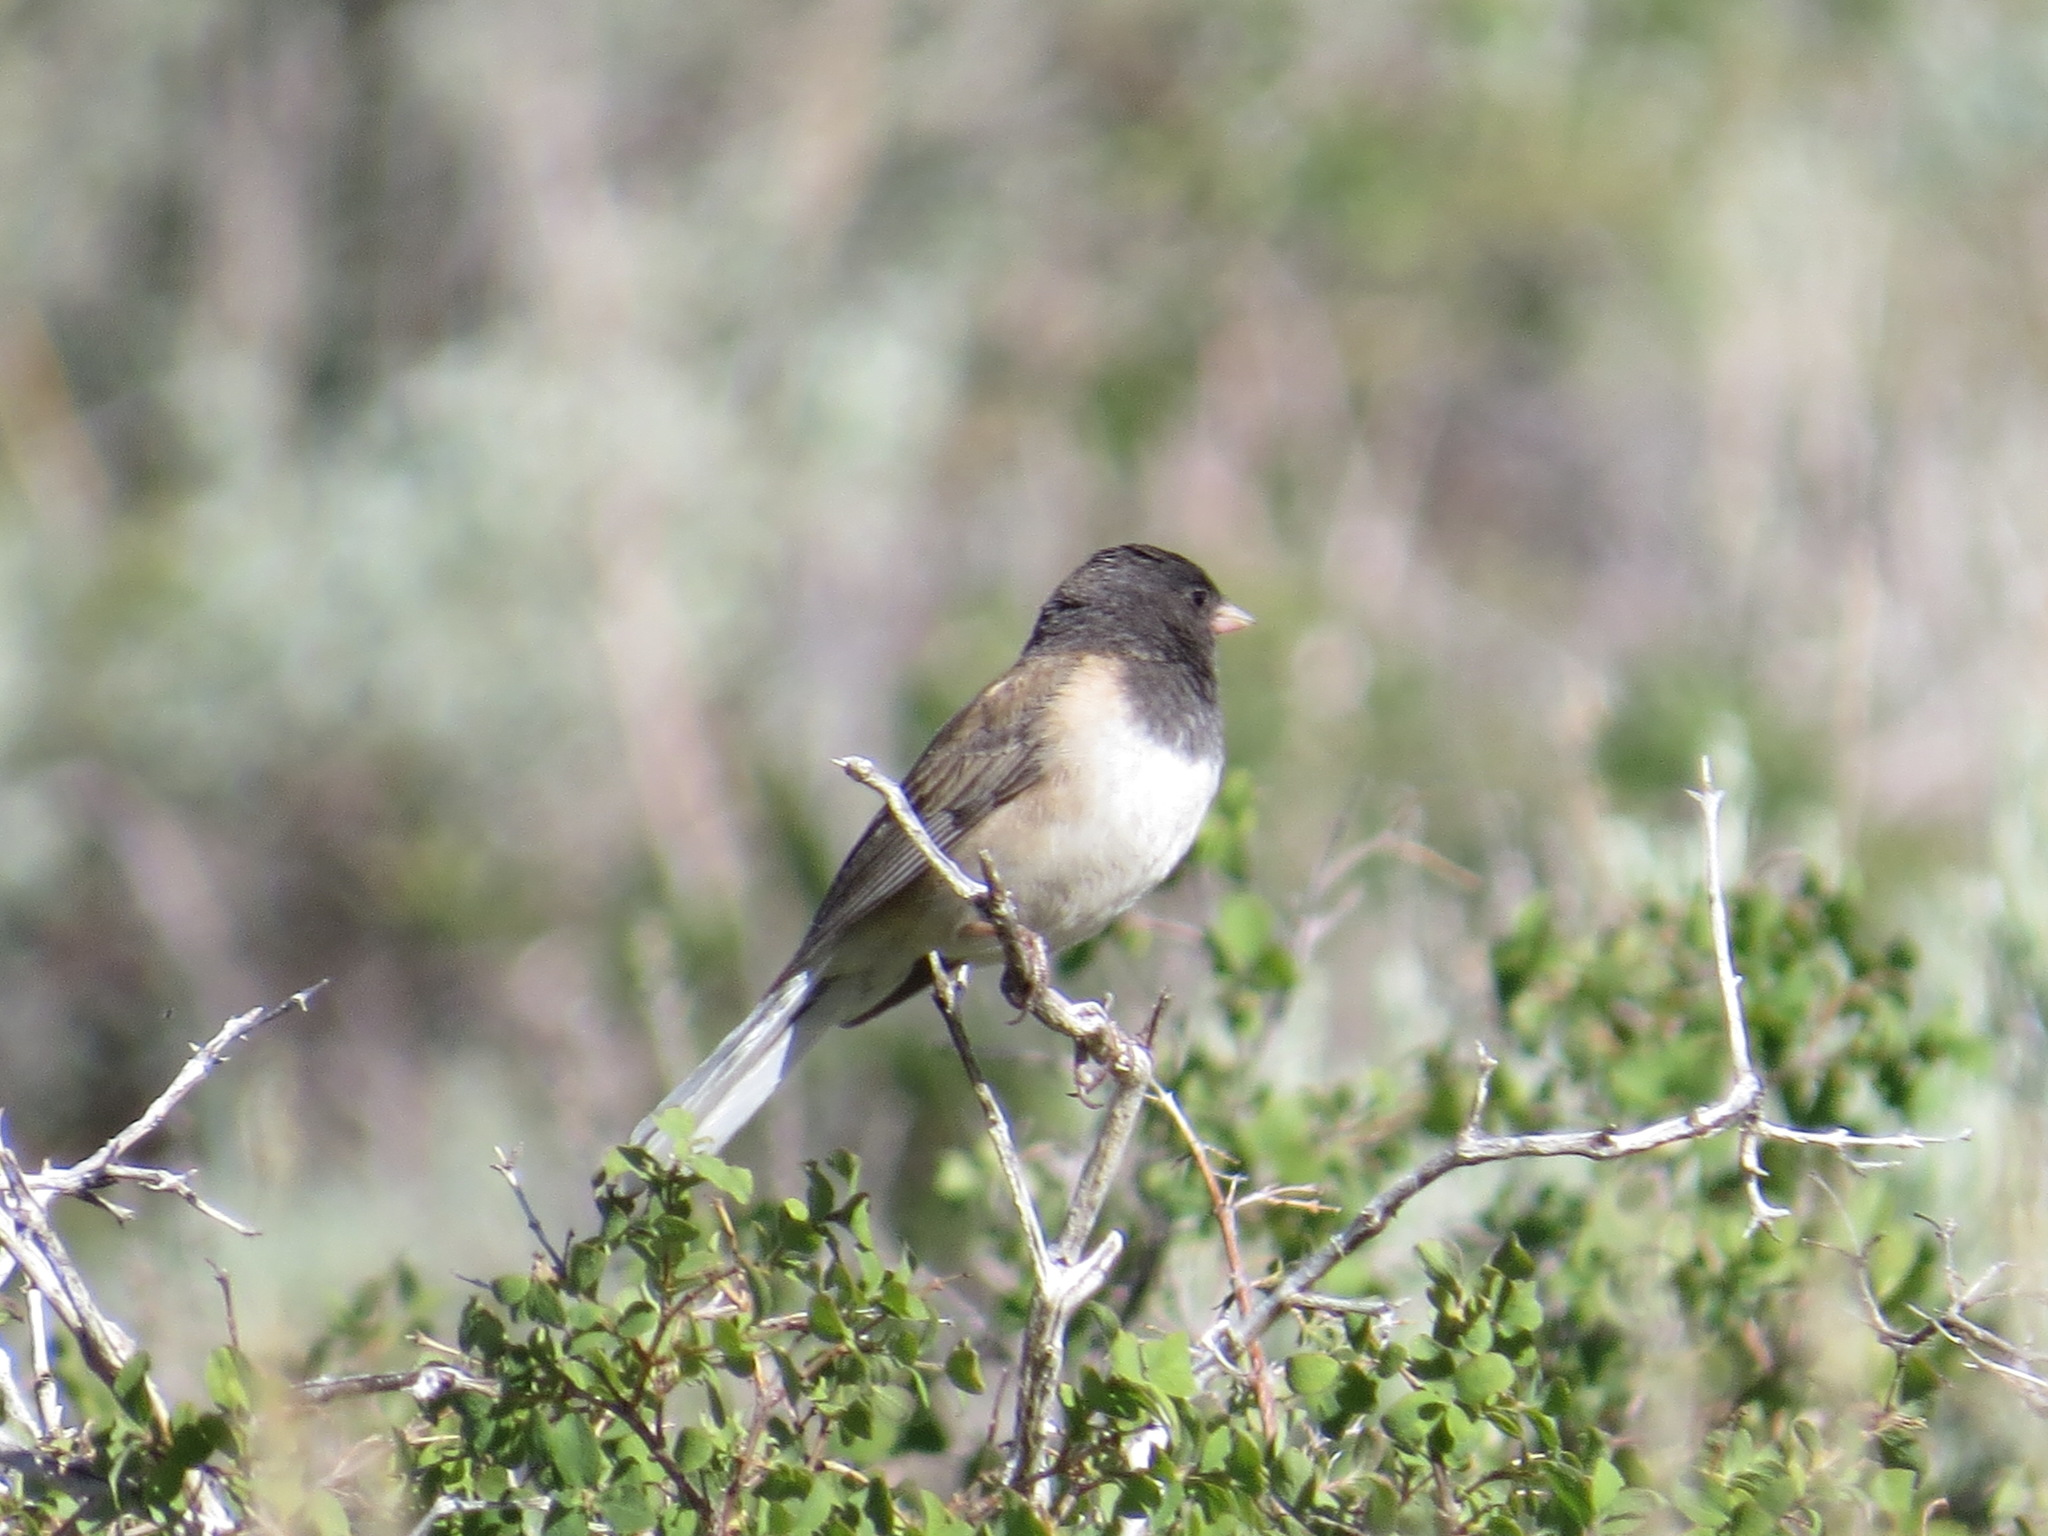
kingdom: Animalia
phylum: Chordata
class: Aves
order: Passeriformes
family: Passerellidae
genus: Junco
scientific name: Junco hyemalis
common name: Dark-eyed junco
